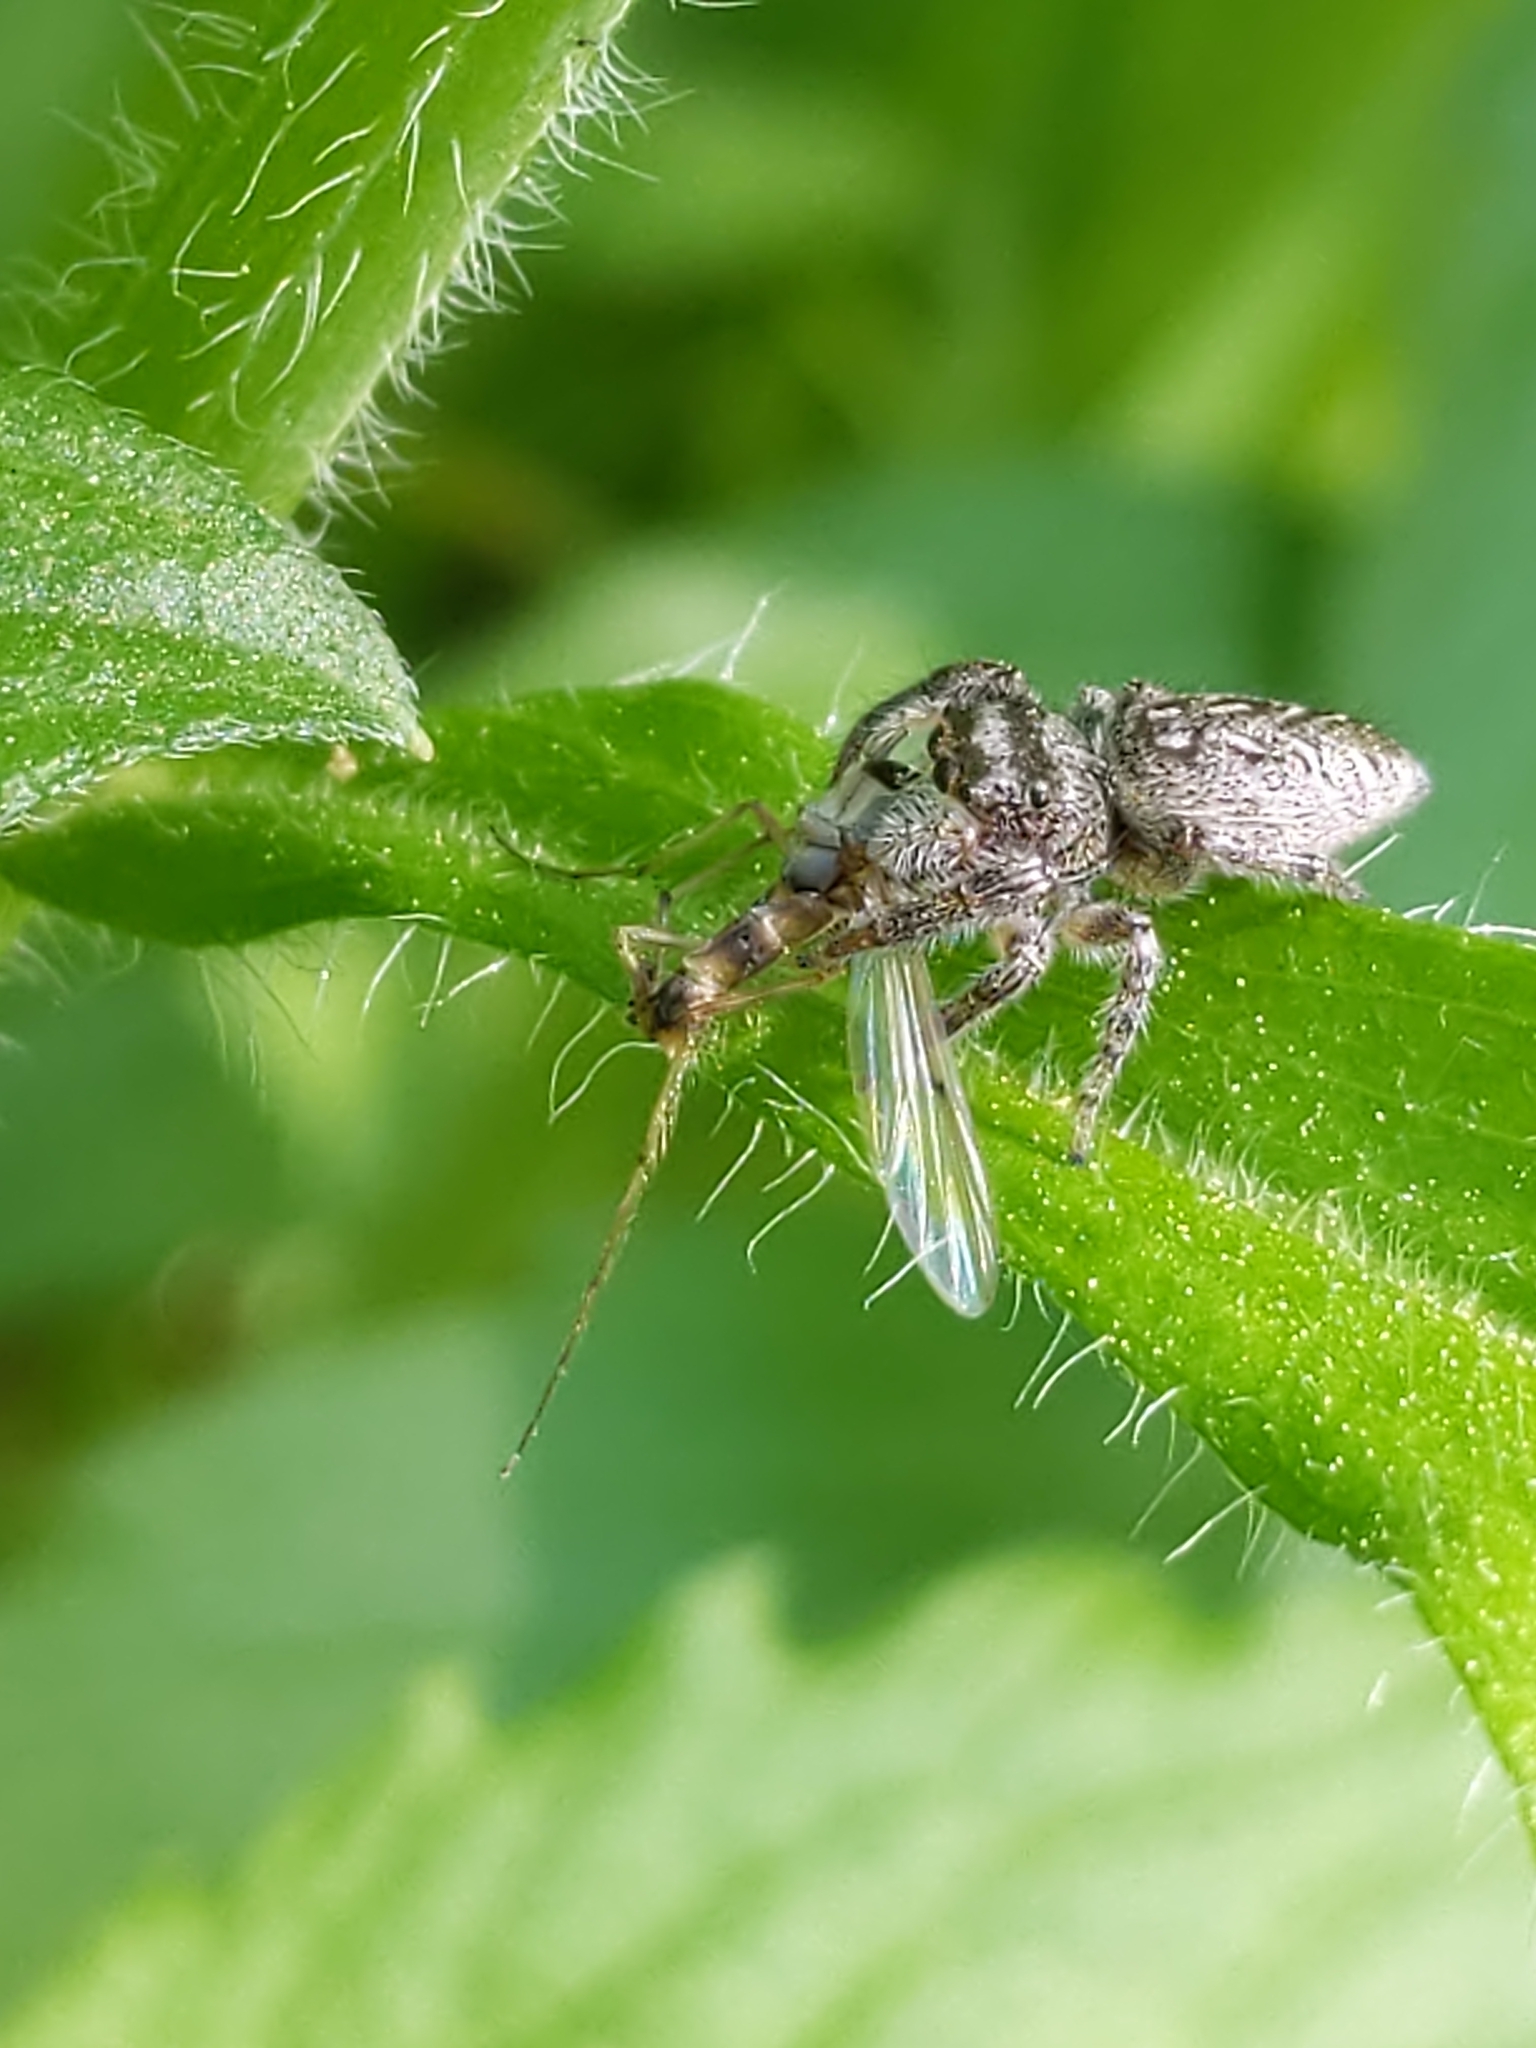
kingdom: Animalia
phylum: Arthropoda
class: Arachnida
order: Araneae
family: Salticidae
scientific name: Salticidae
